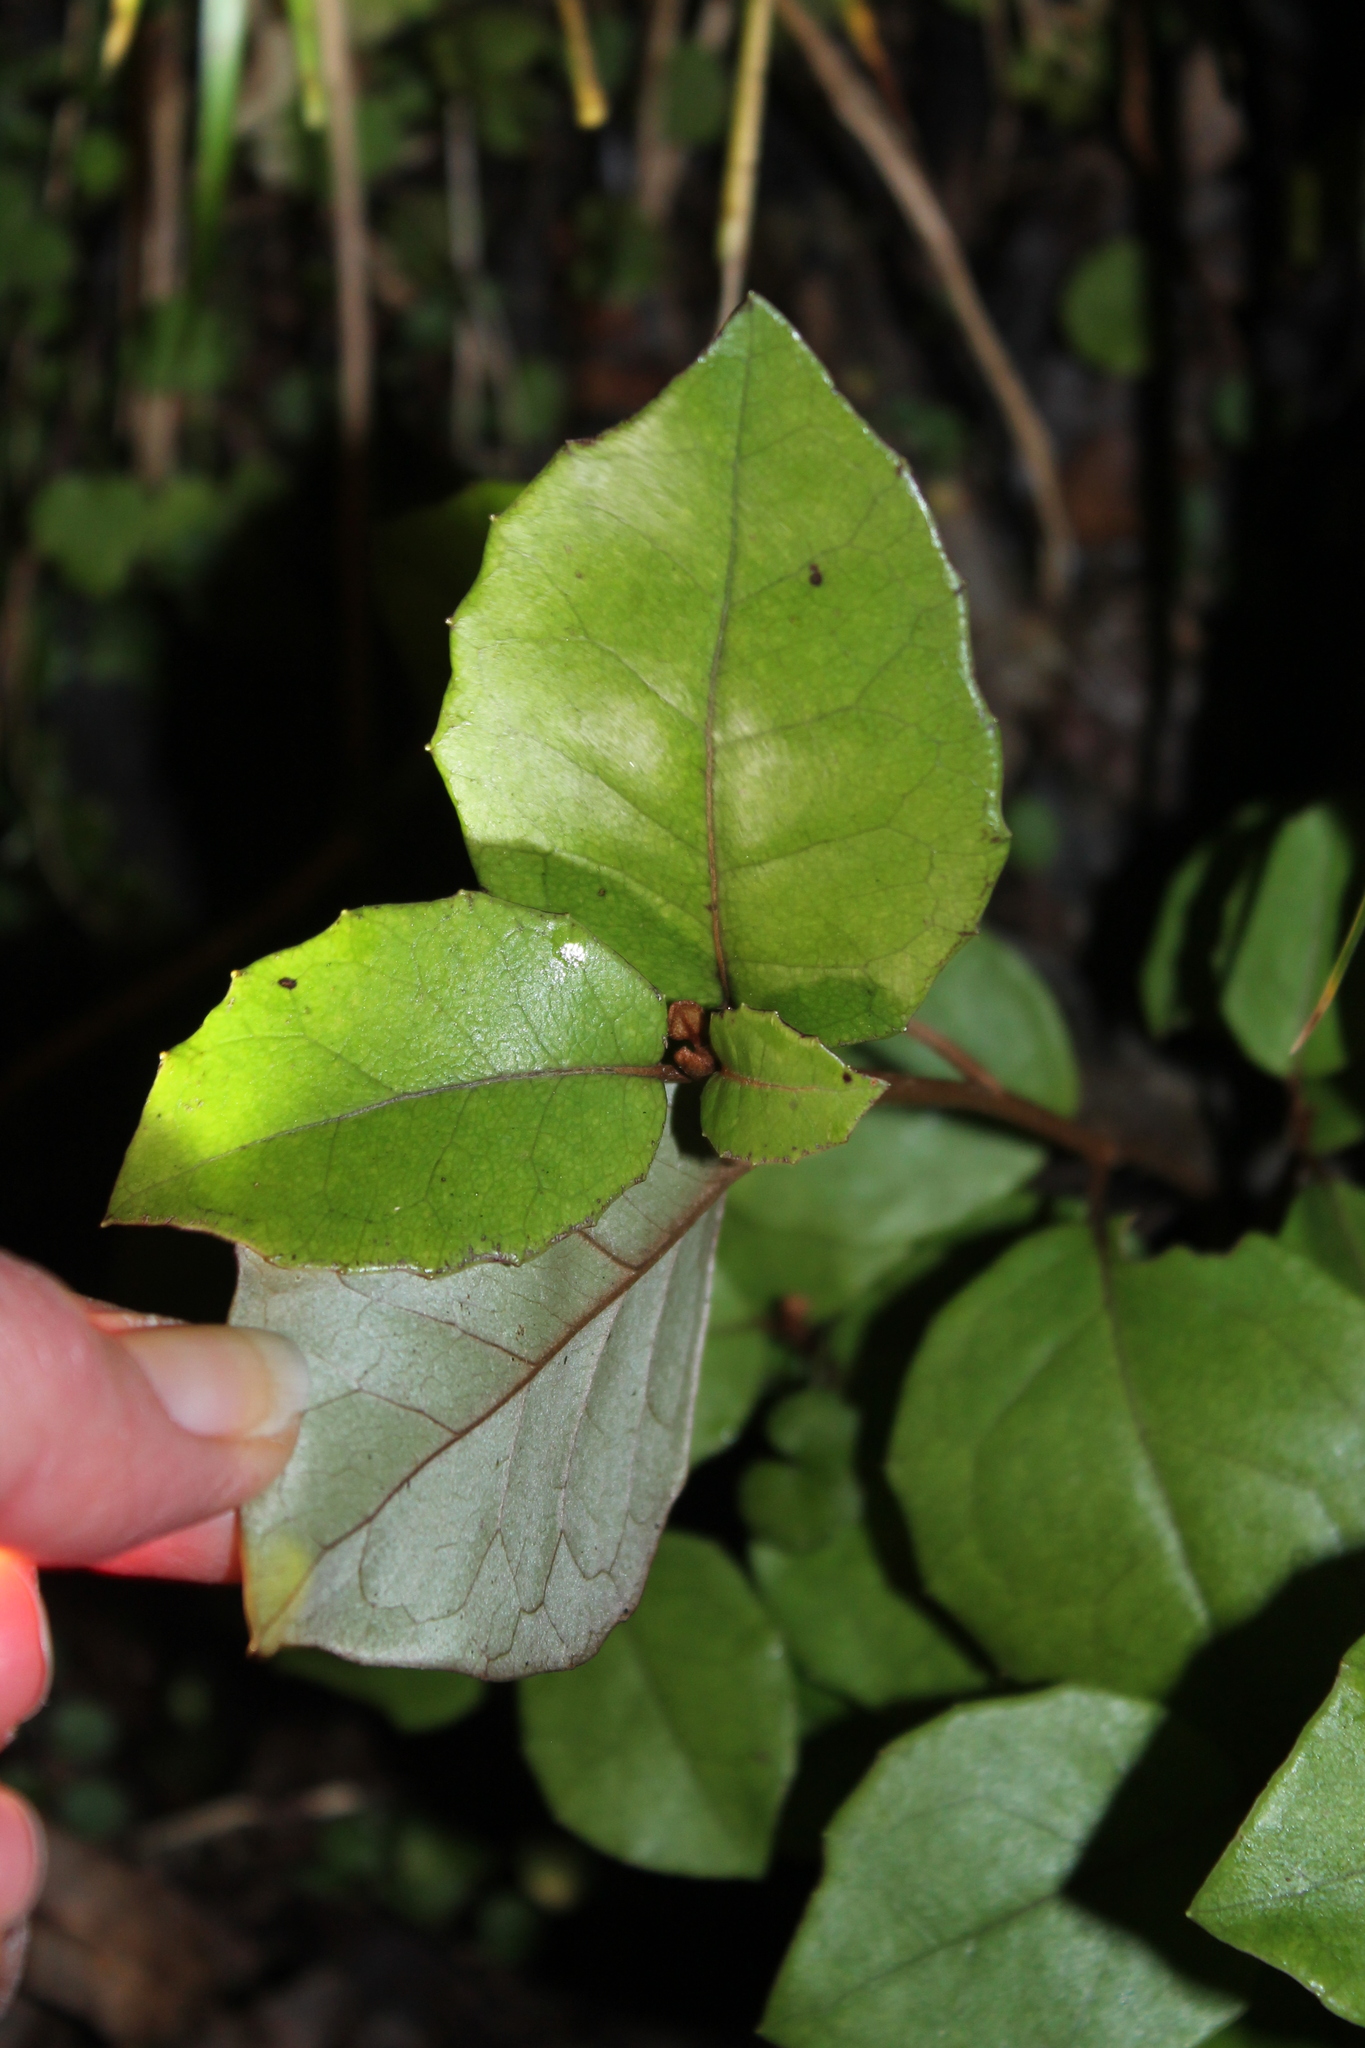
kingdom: Plantae
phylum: Tracheophyta
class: Magnoliopsida
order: Asterales
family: Asteraceae
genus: Olearia
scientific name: Olearia arborescens
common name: Glossy tree daisy
